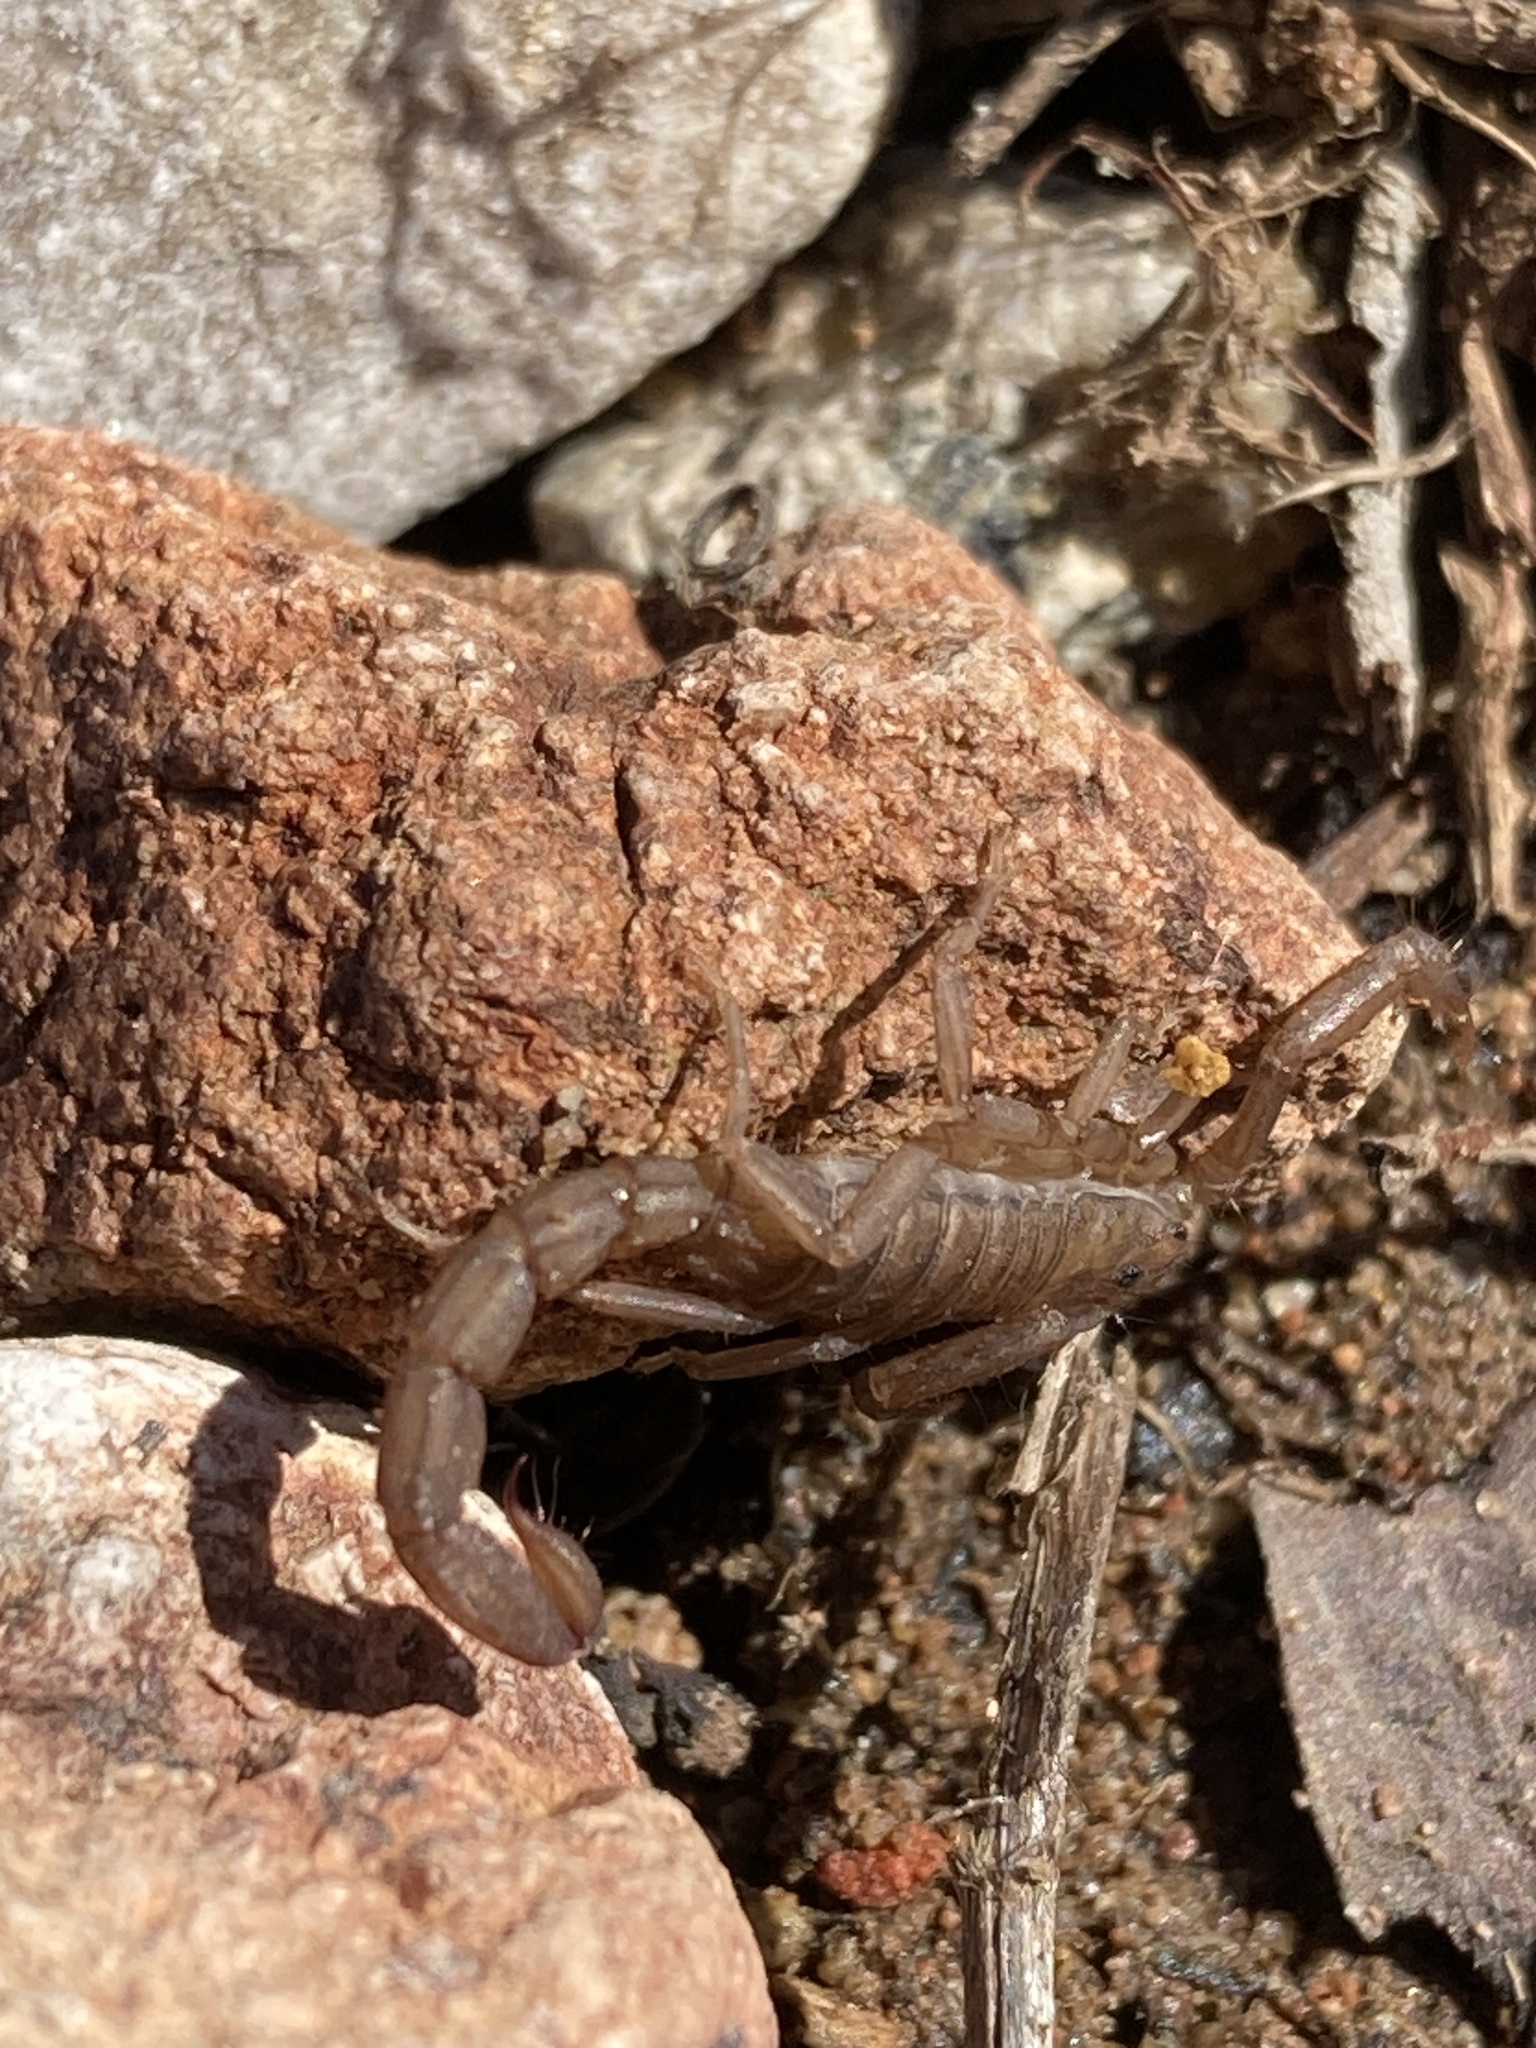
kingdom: Animalia
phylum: Arthropoda
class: Arachnida
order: Scorpiones
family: Vaejovidae
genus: Serradigitus
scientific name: Serradigitus gertschi
